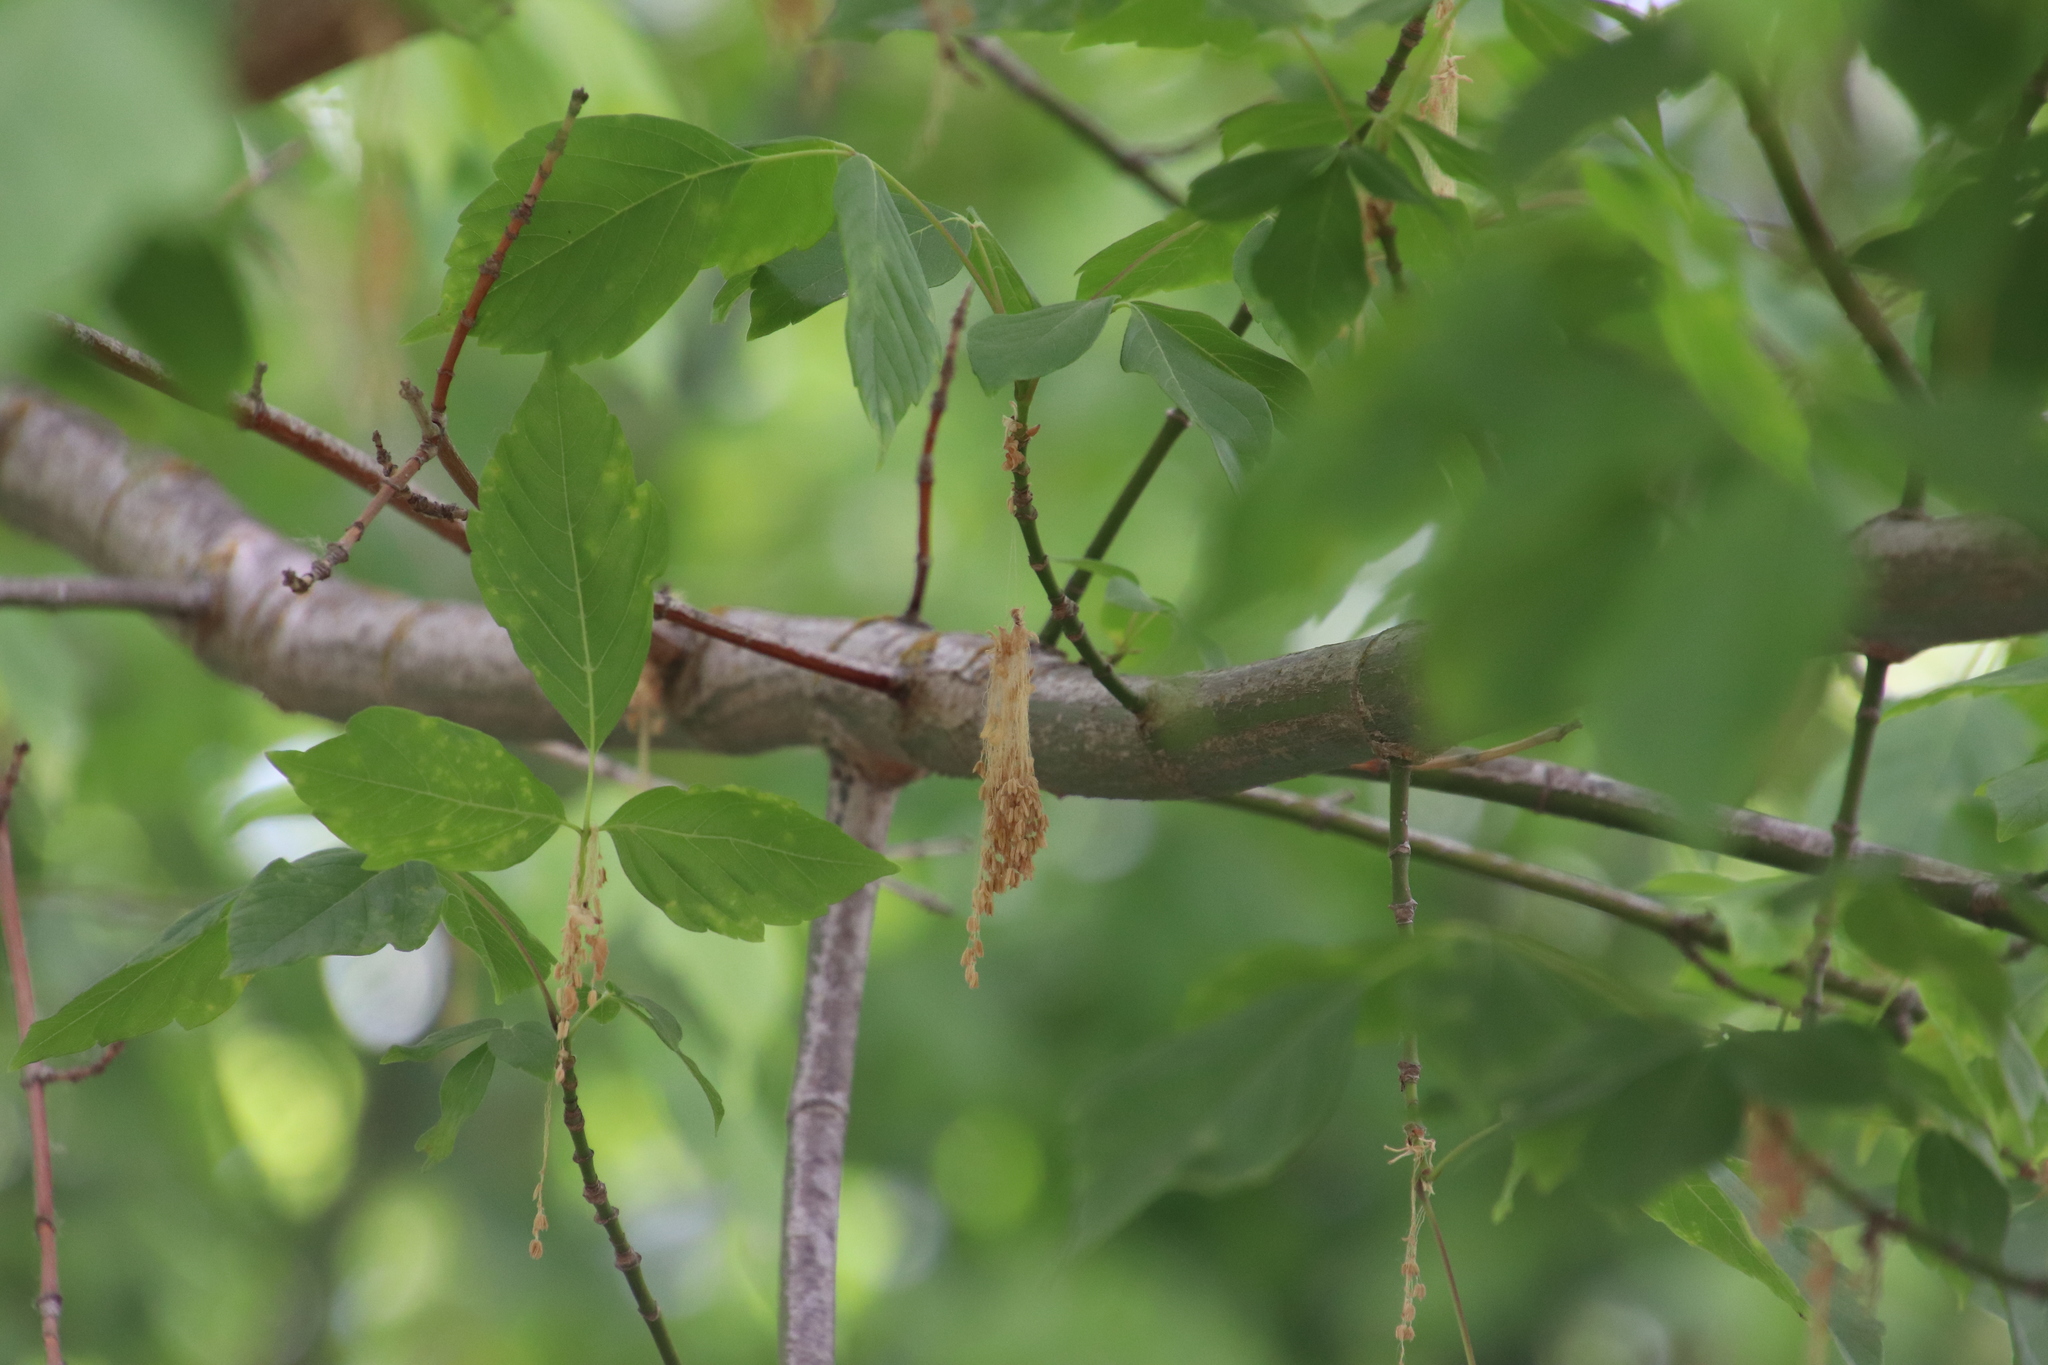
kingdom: Plantae
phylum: Tracheophyta
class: Magnoliopsida
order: Sapindales
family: Sapindaceae
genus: Acer
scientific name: Acer negundo
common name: Ashleaf maple
